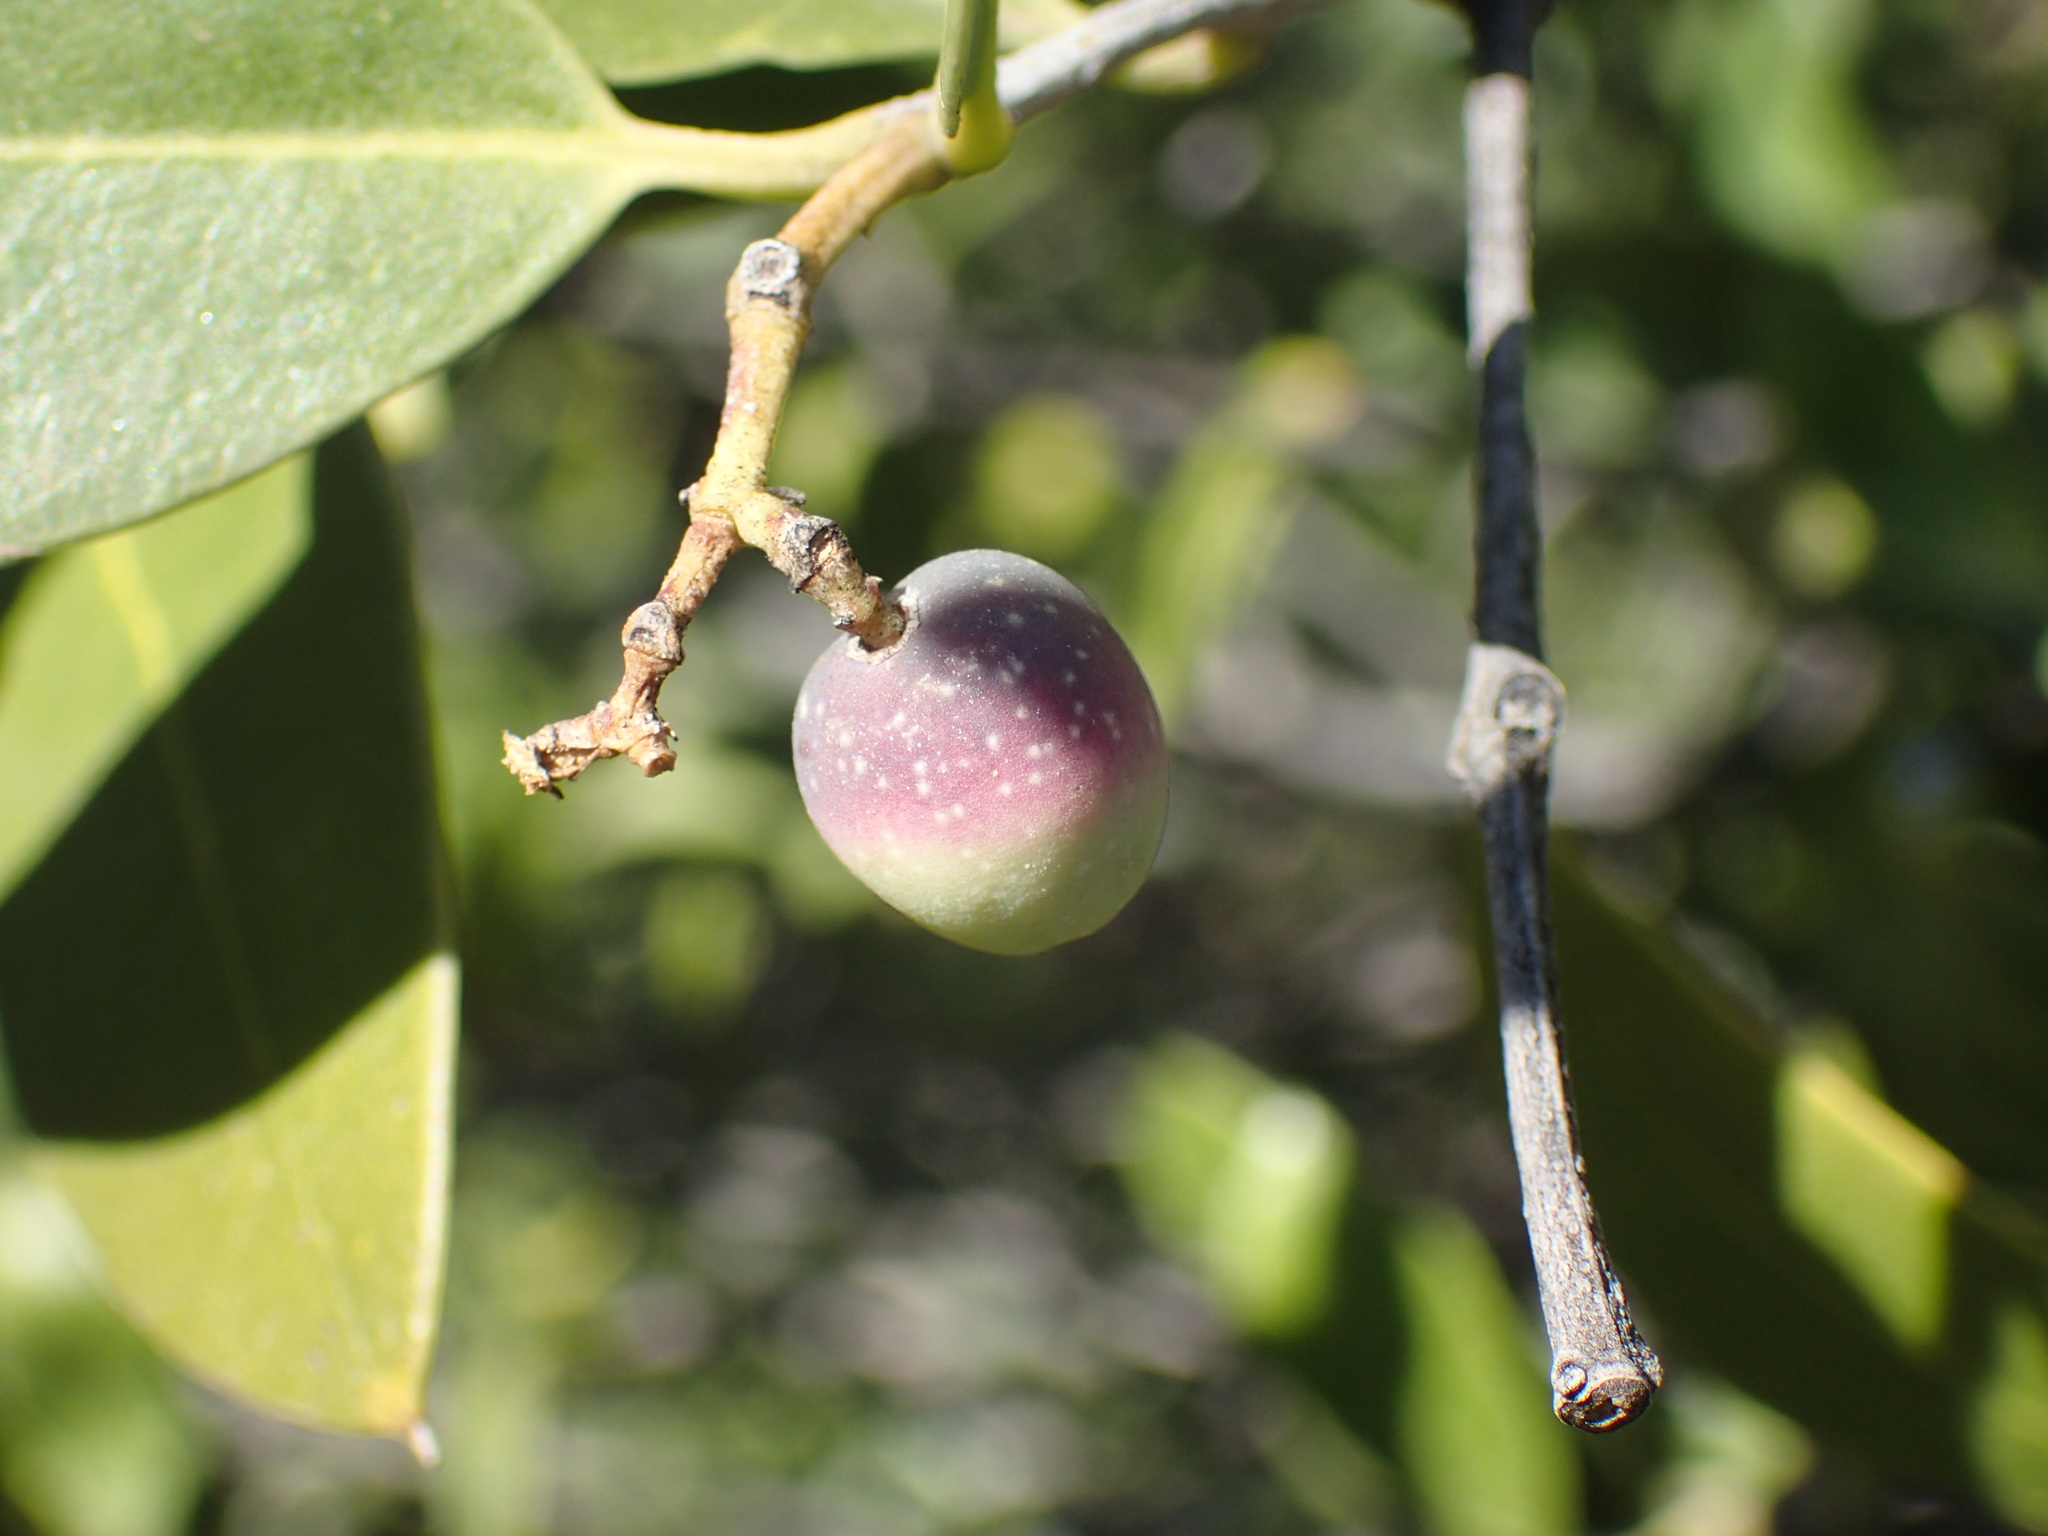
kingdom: Plantae
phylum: Tracheophyta
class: Magnoliopsida
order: Lamiales
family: Oleaceae
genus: Olea
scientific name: Olea capensis
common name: Black ironwood
